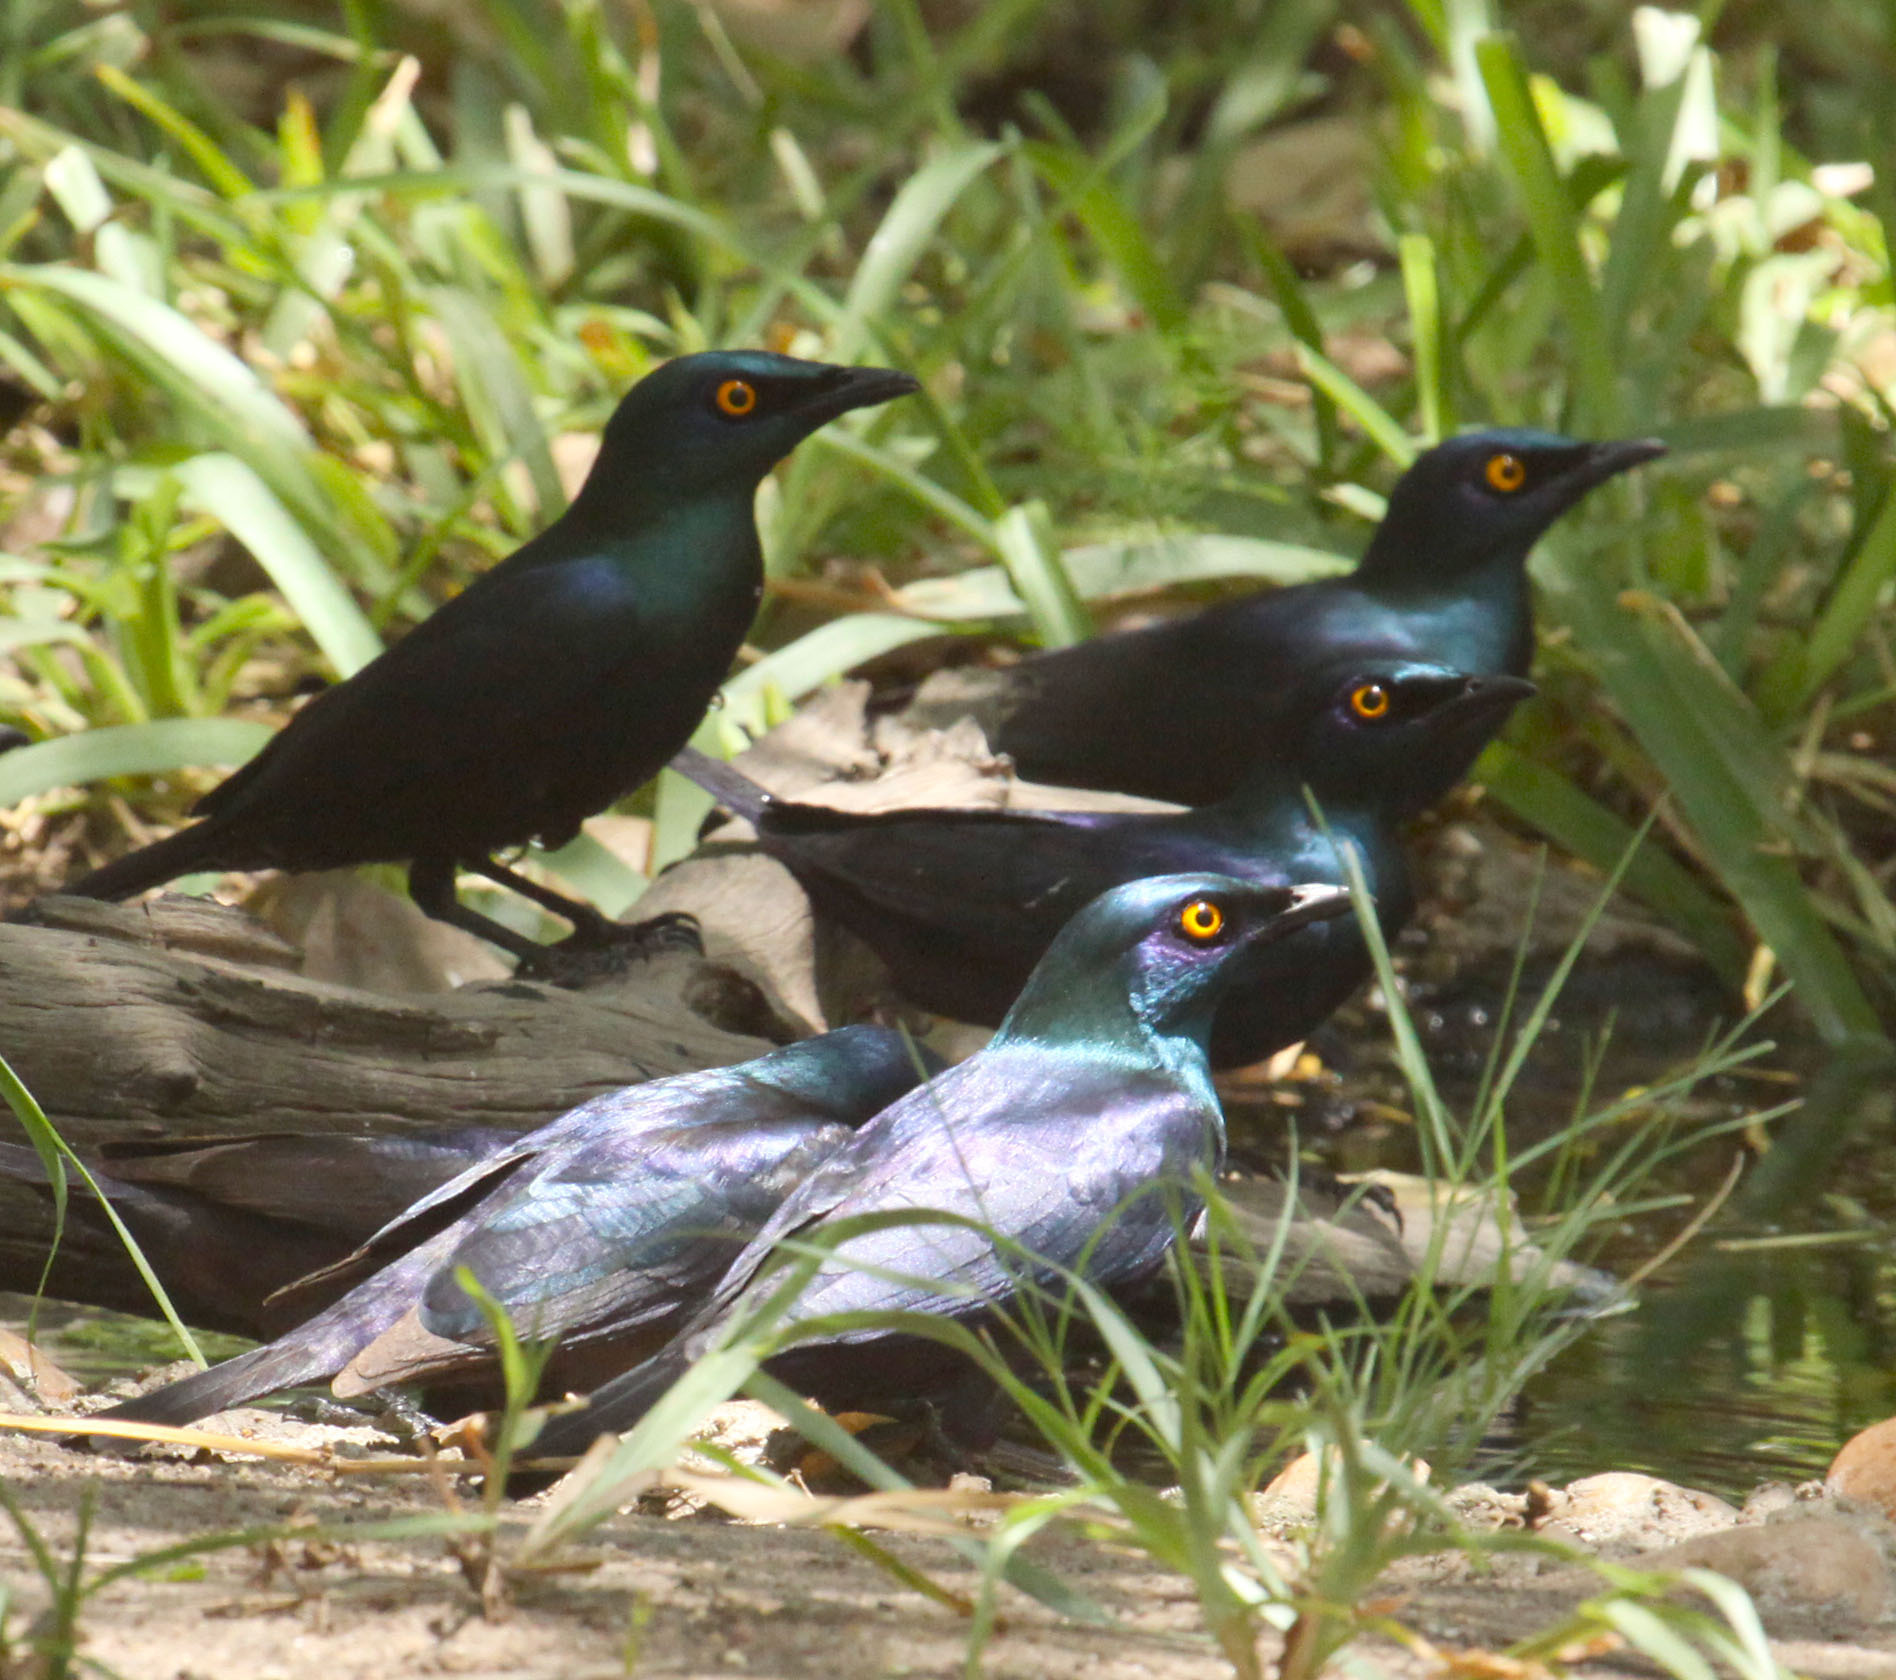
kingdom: Animalia
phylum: Chordata
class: Aves
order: Passeriformes
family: Sturnidae
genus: Notopholia
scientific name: Notopholia corrusca
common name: Black-bellied starling
